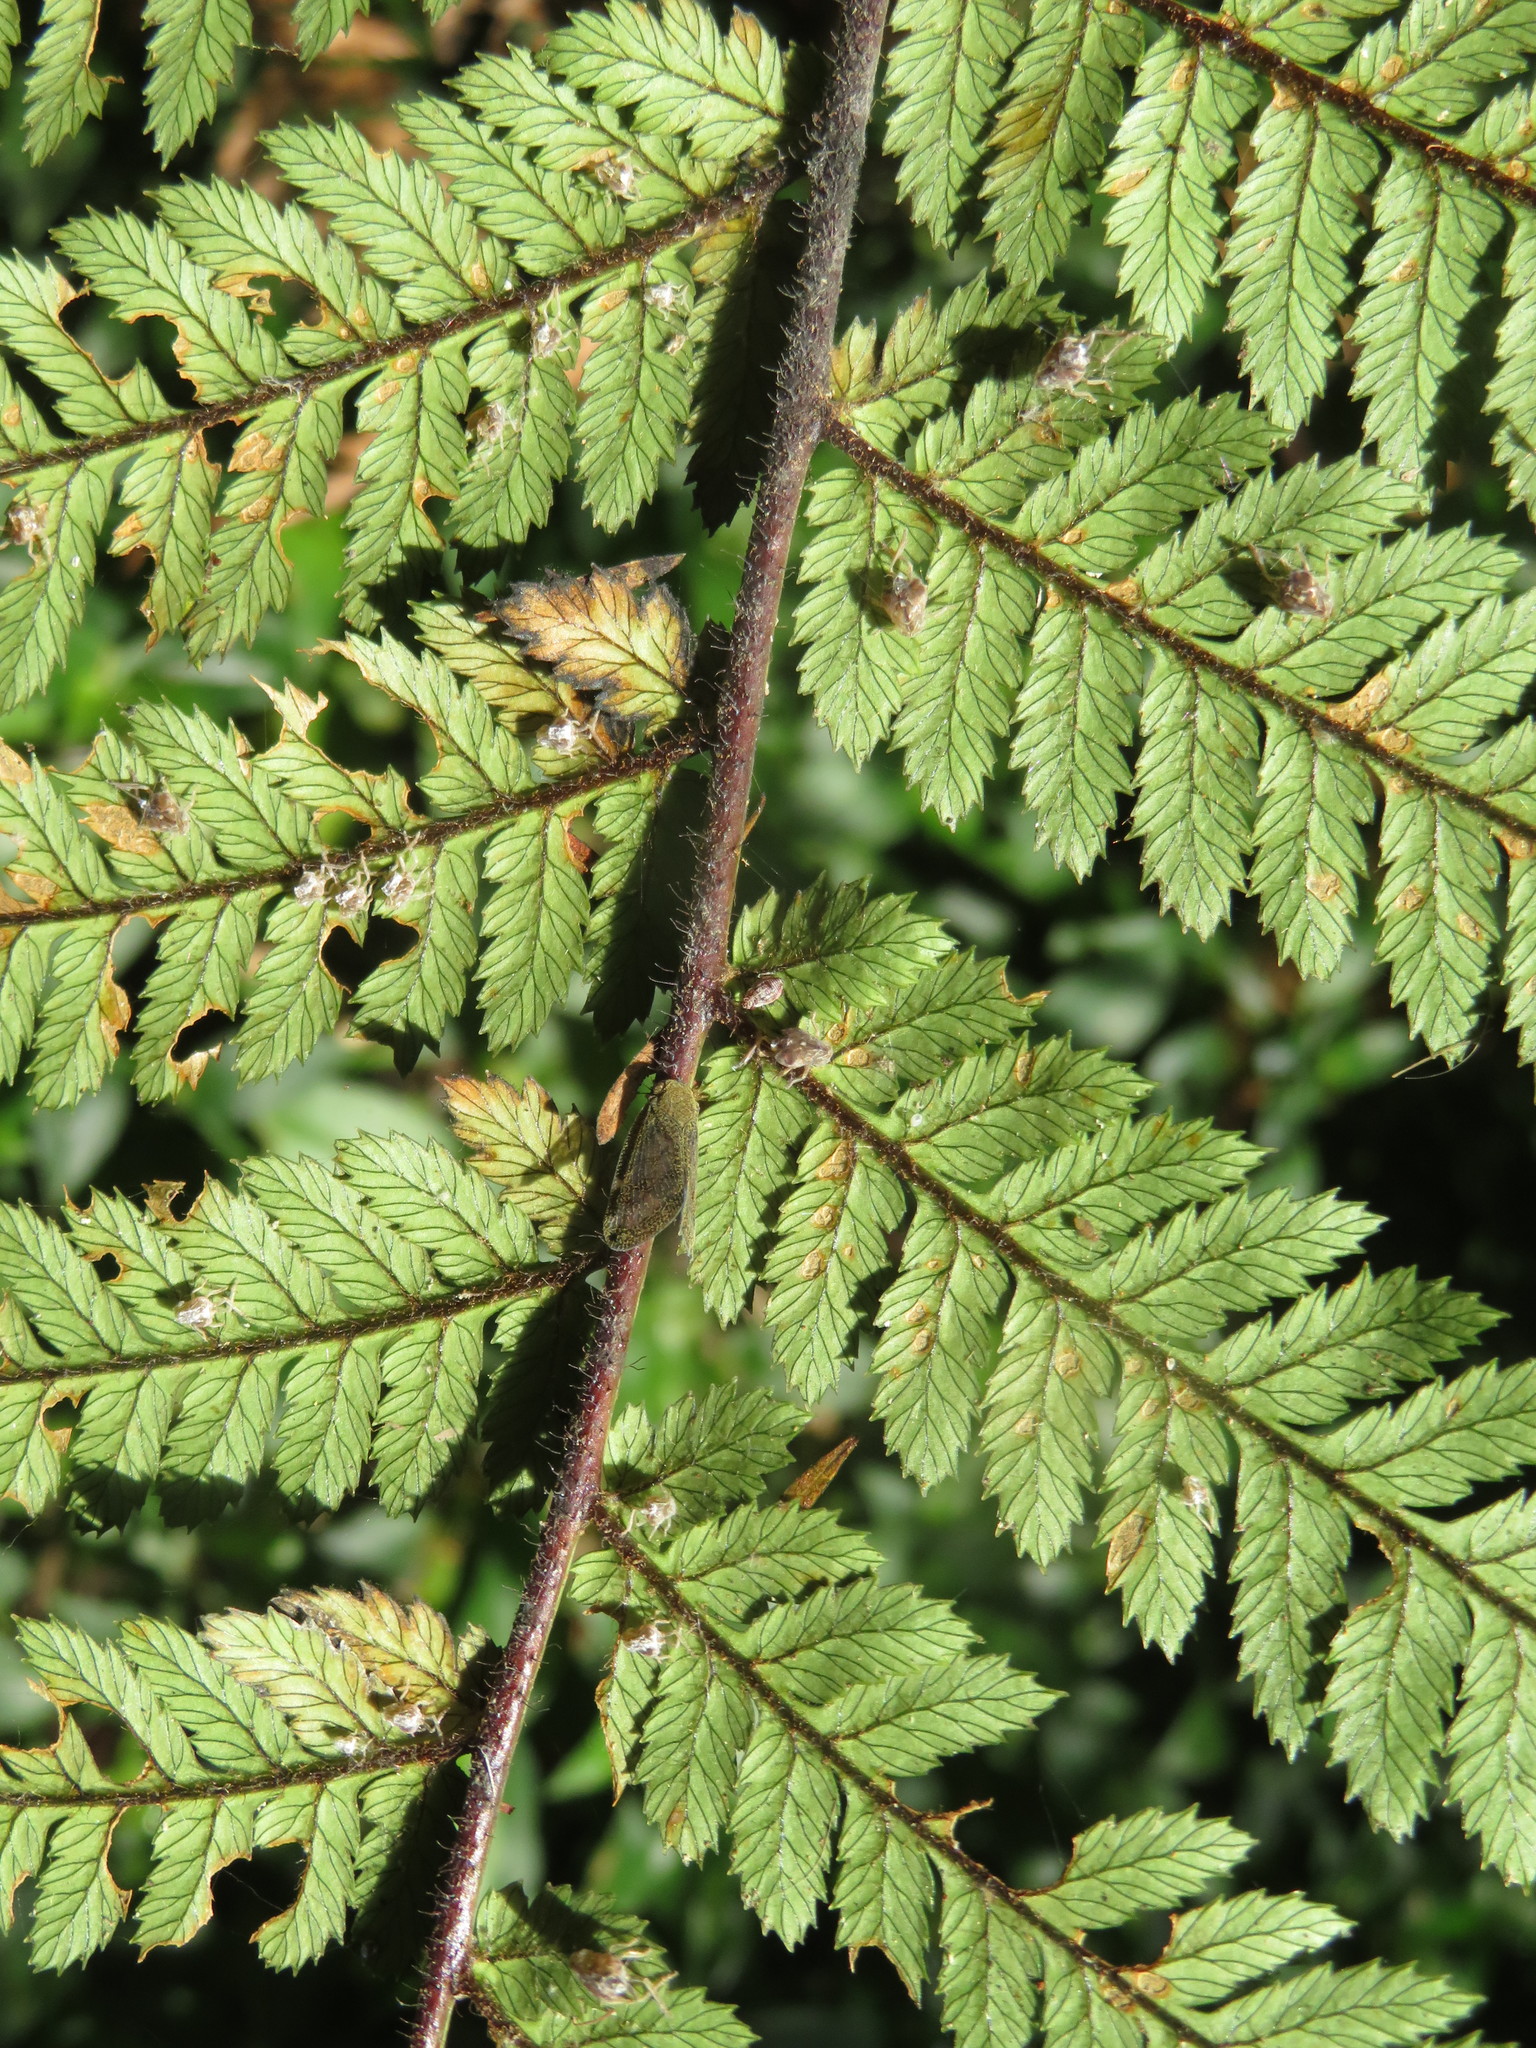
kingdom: Animalia
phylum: Arthropoda
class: Insecta
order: Hemiptera
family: Ricaniidae
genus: Scolypopa
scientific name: Scolypopa australis
